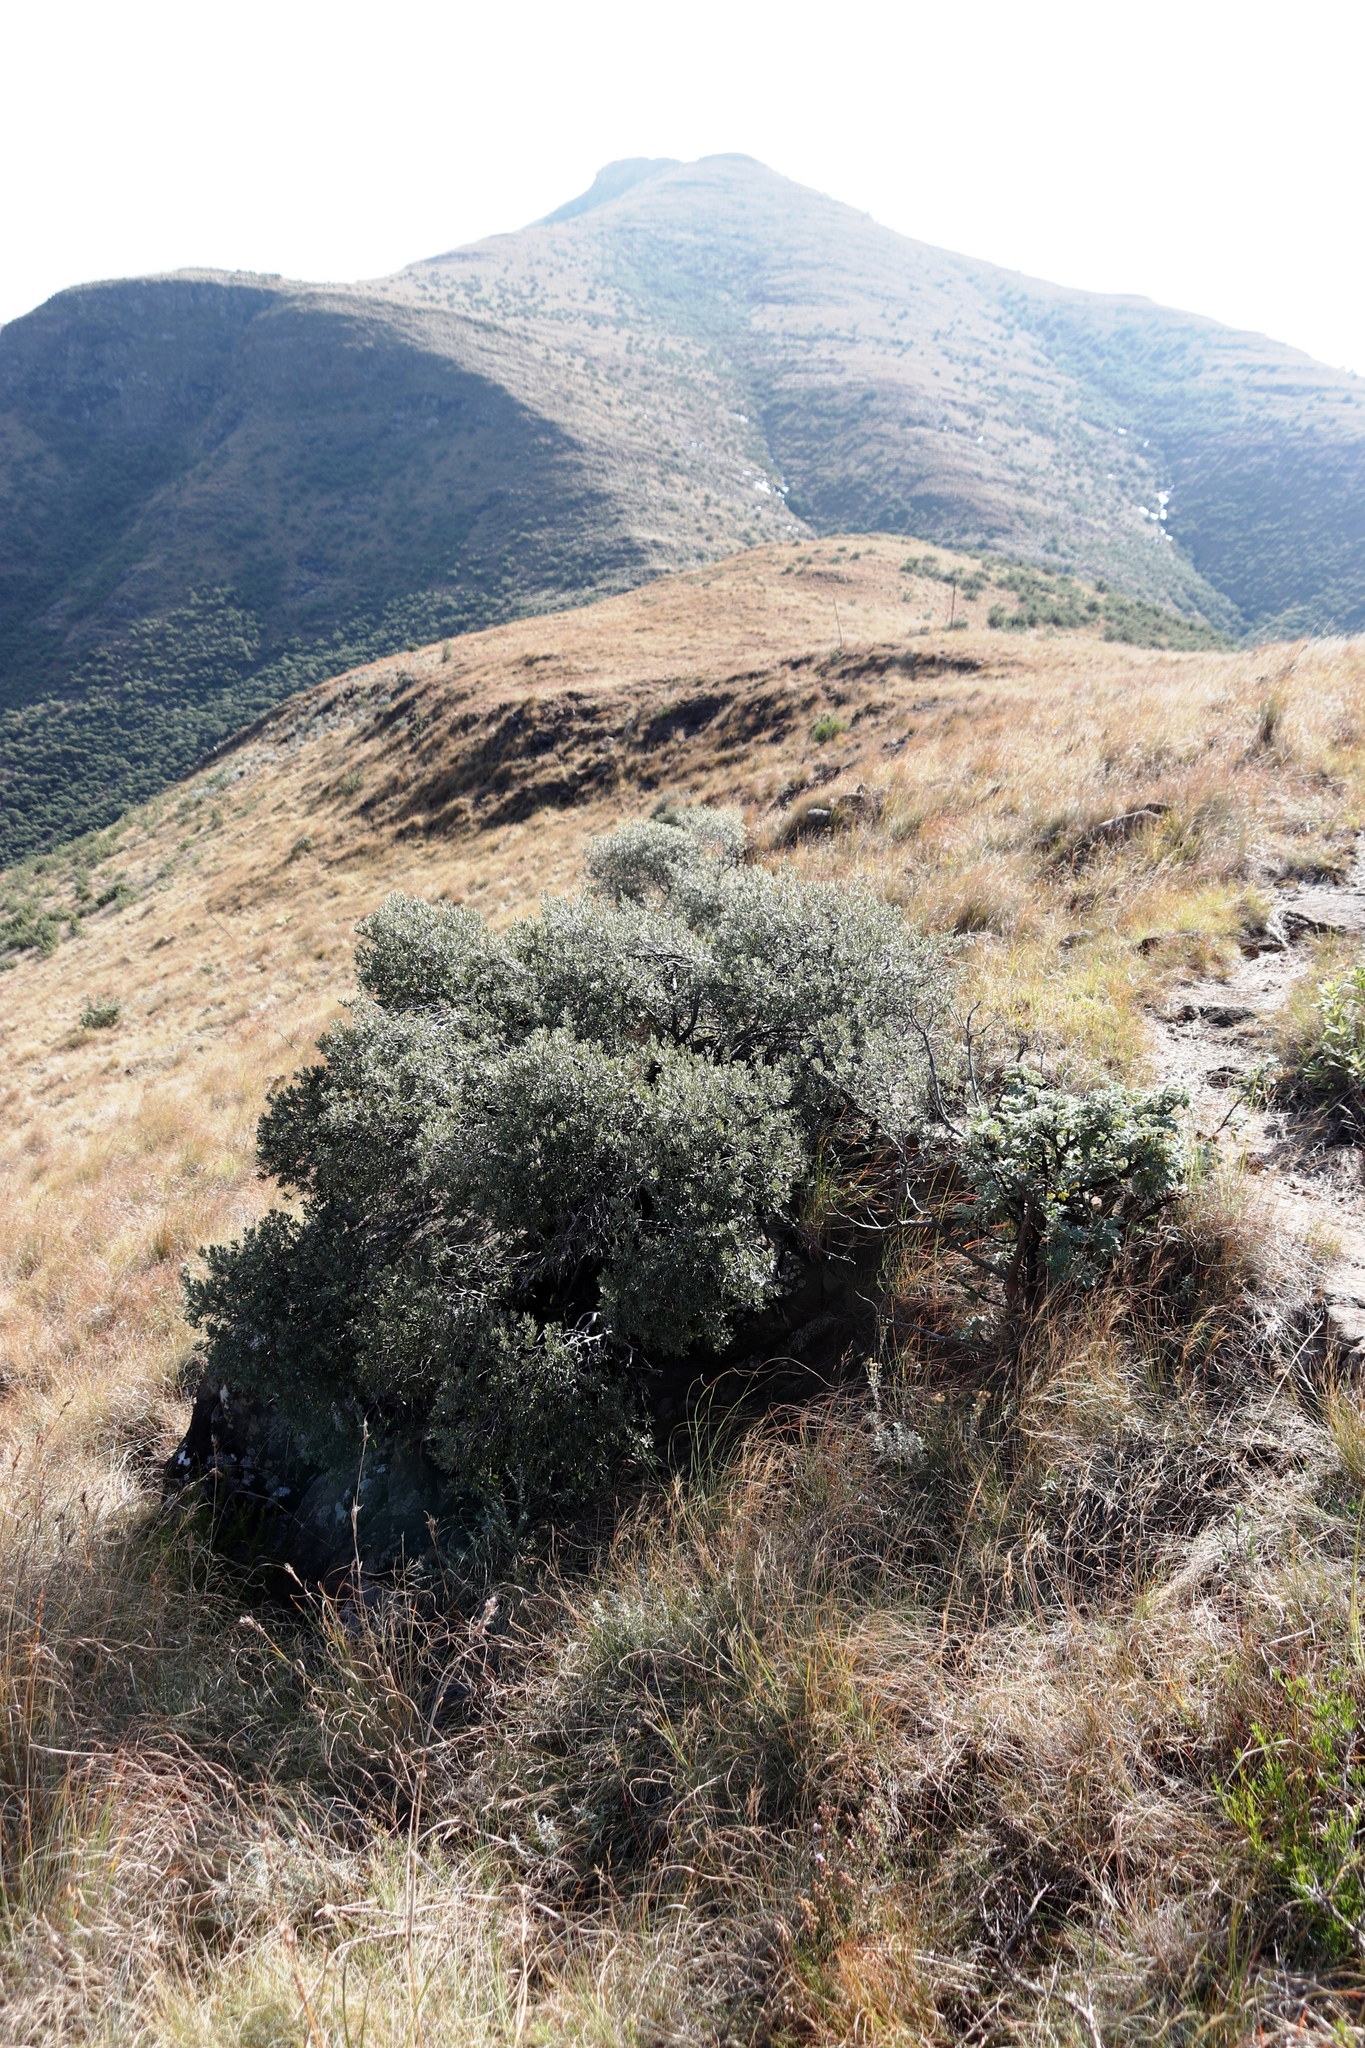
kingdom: Plantae
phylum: Tracheophyta
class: Magnoliopsida
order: Ericales
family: Ebenaceae
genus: Diospyros
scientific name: Diospyros pubescens
